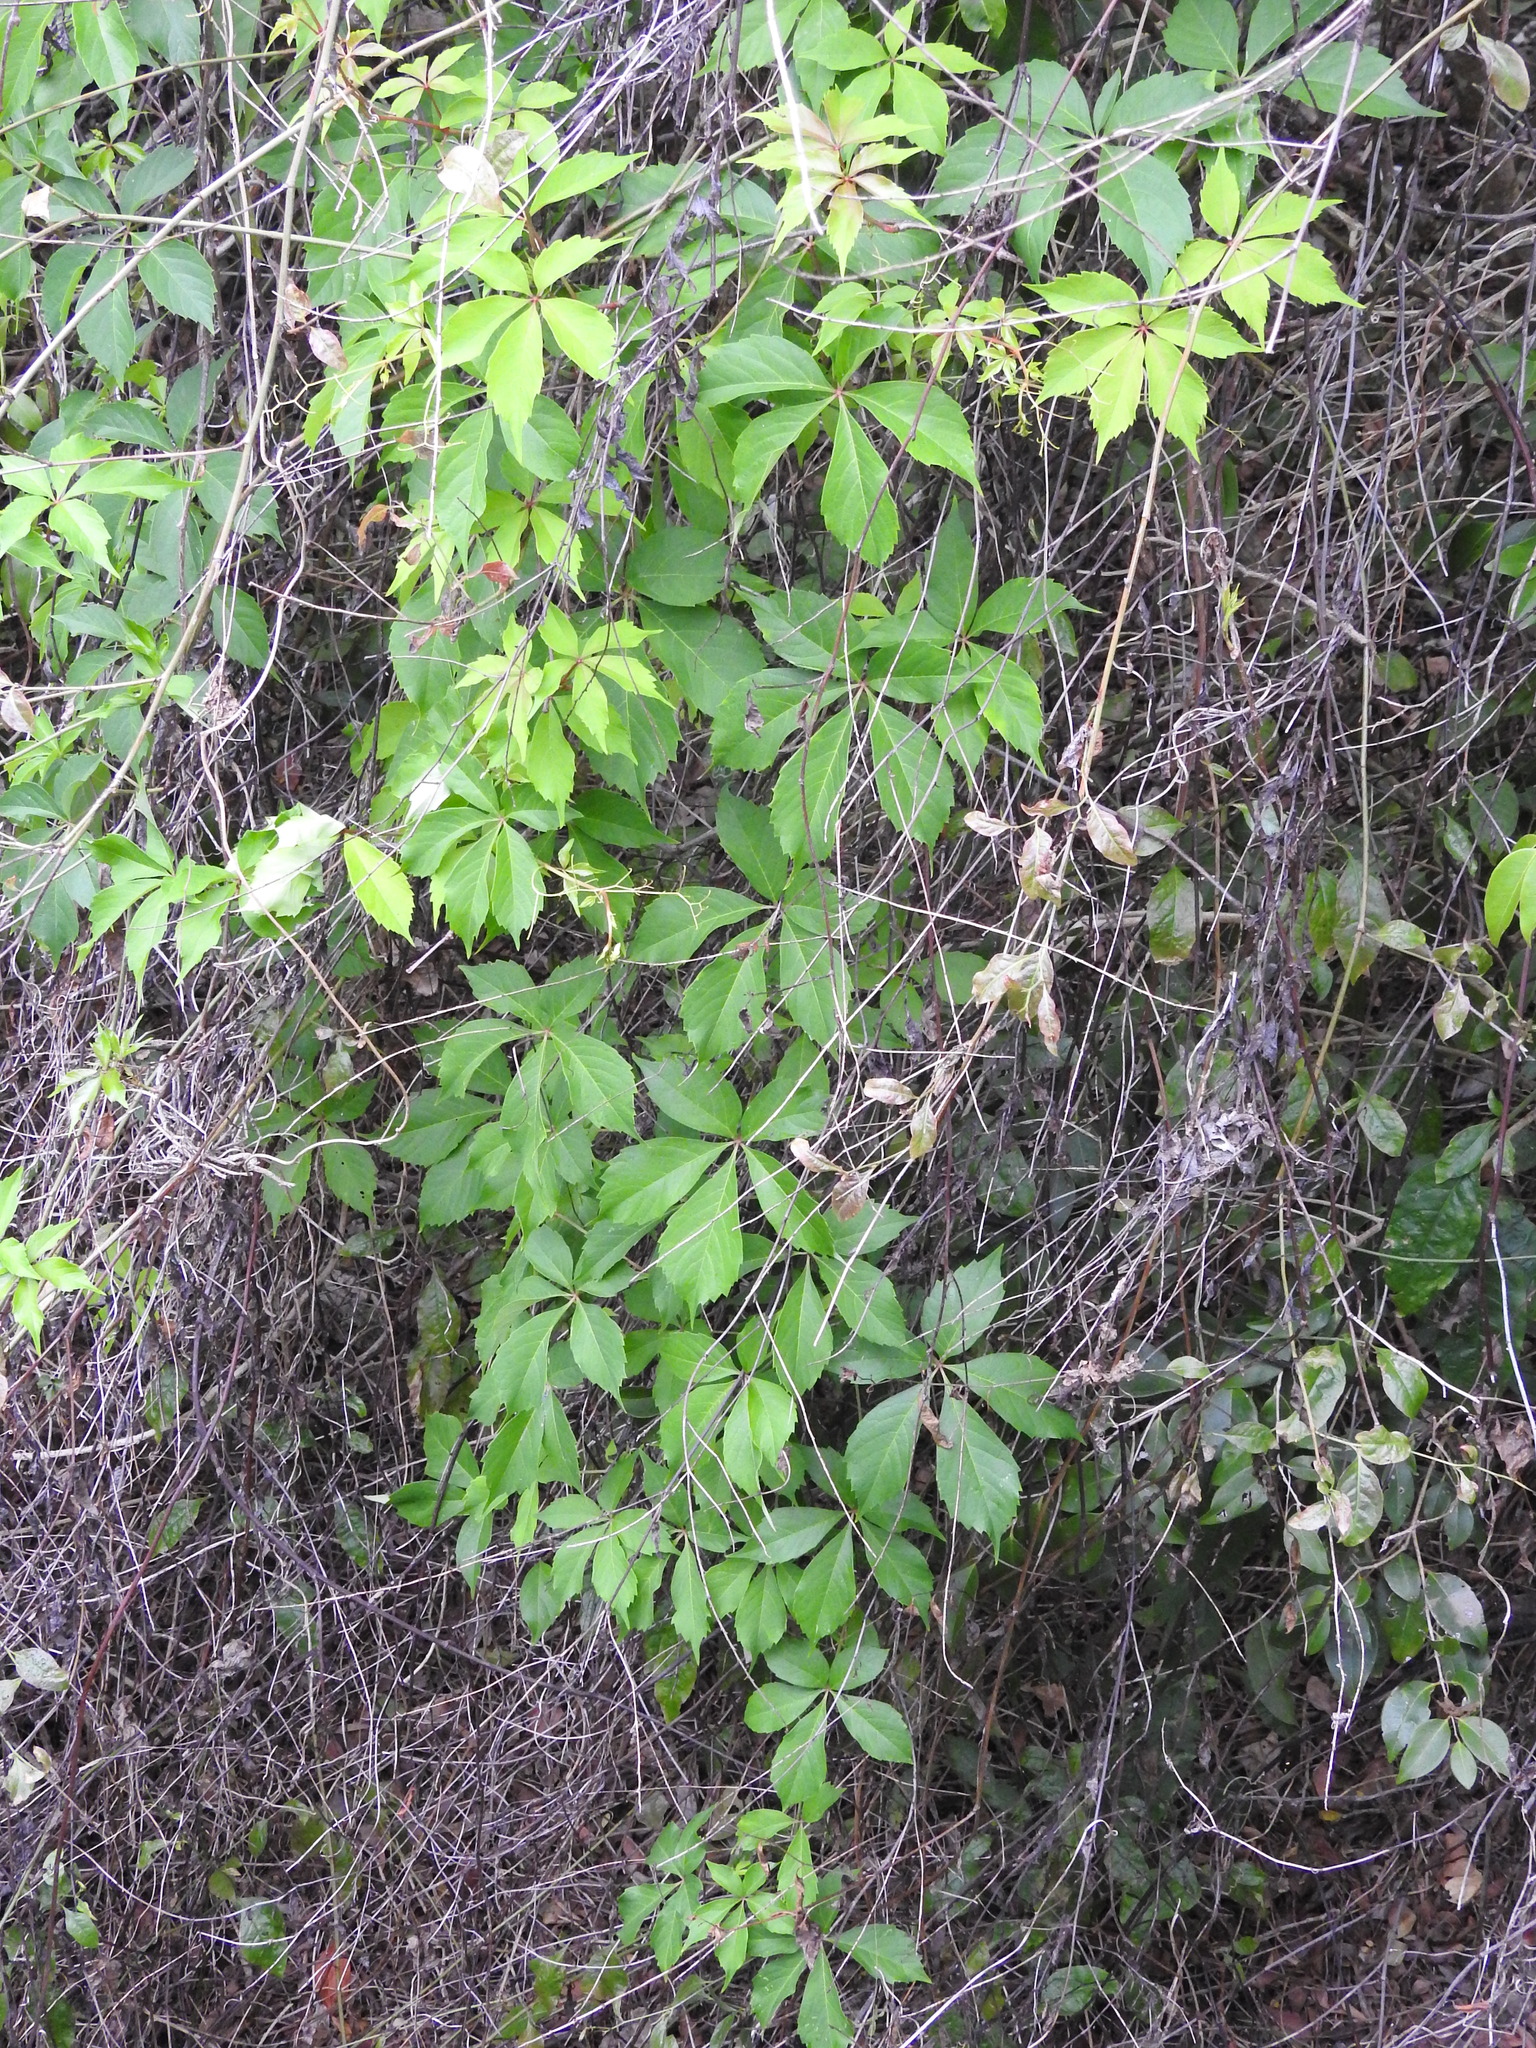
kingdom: Plantae
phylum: Tracheophyta
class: Magnoliopsida
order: Vitales
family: Vitaceae
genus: Parthenocissus
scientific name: Parthenocissus quinquefolia
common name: Virginia-creeper
